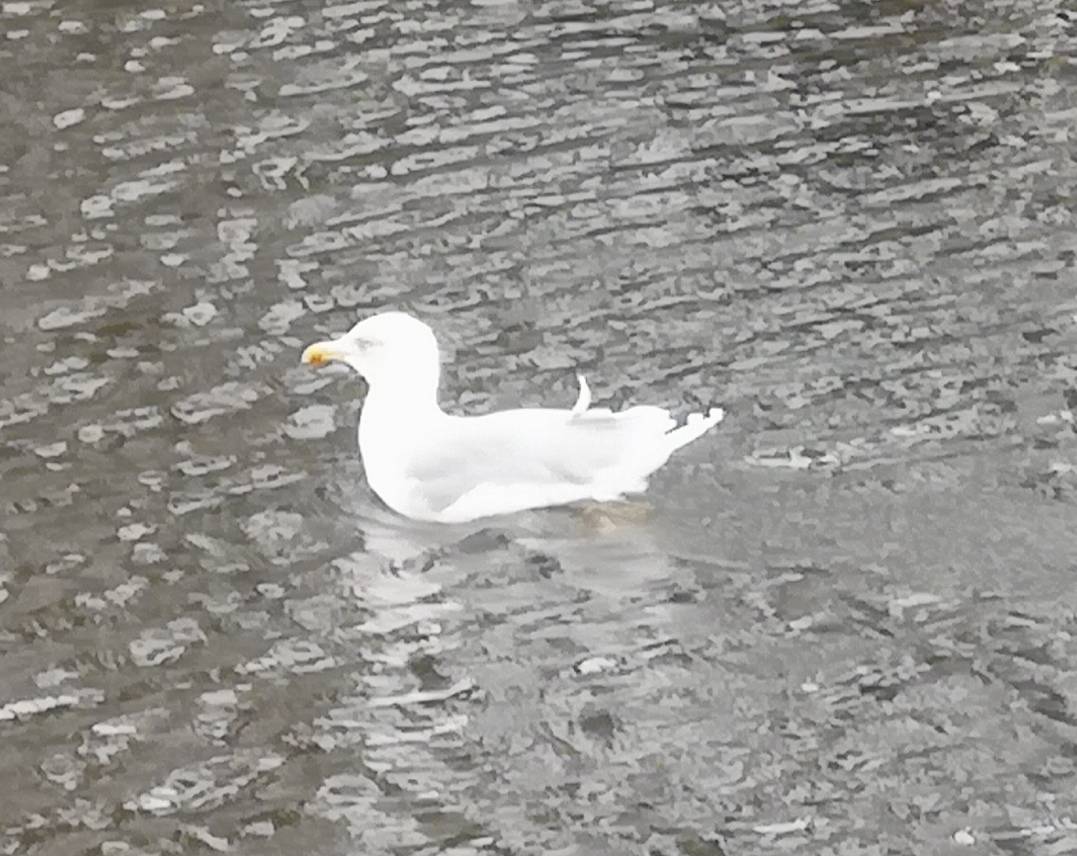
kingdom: Animalia
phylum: Chordata
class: Aves
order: Charadriiformes
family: Laridae
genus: Larus
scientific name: Larus argentatus
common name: Herring gull
